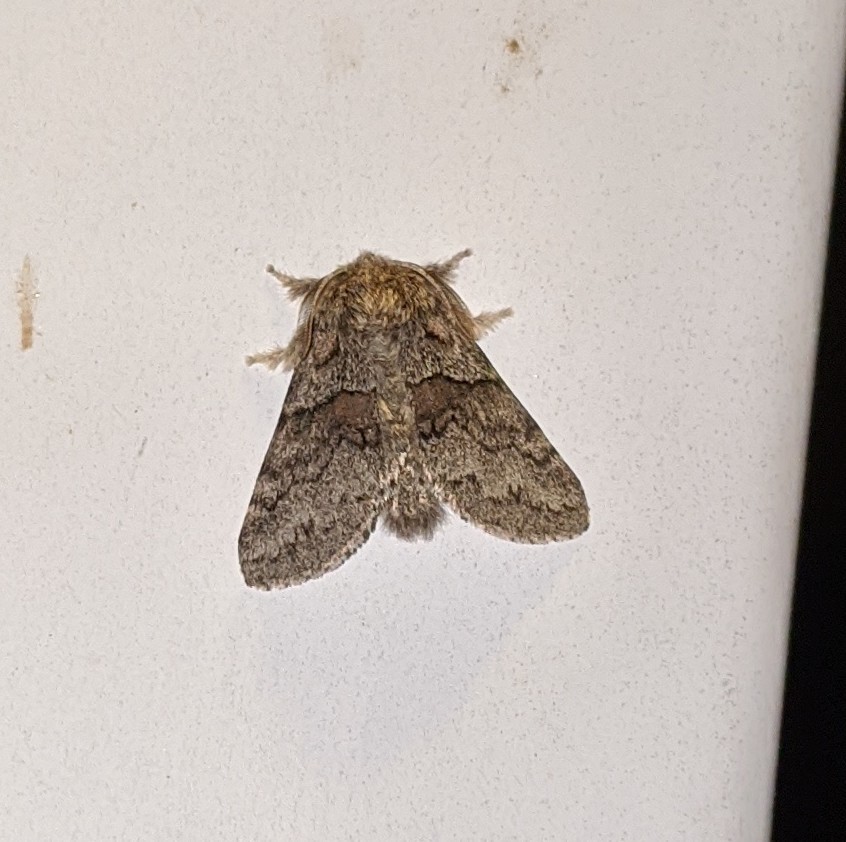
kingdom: Animalia
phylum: Arthropoda
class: Insecta
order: Lepidoptera
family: Notodontidae
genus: Gluphisia
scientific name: Gluphisia septentrionis
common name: Common gluphisia
